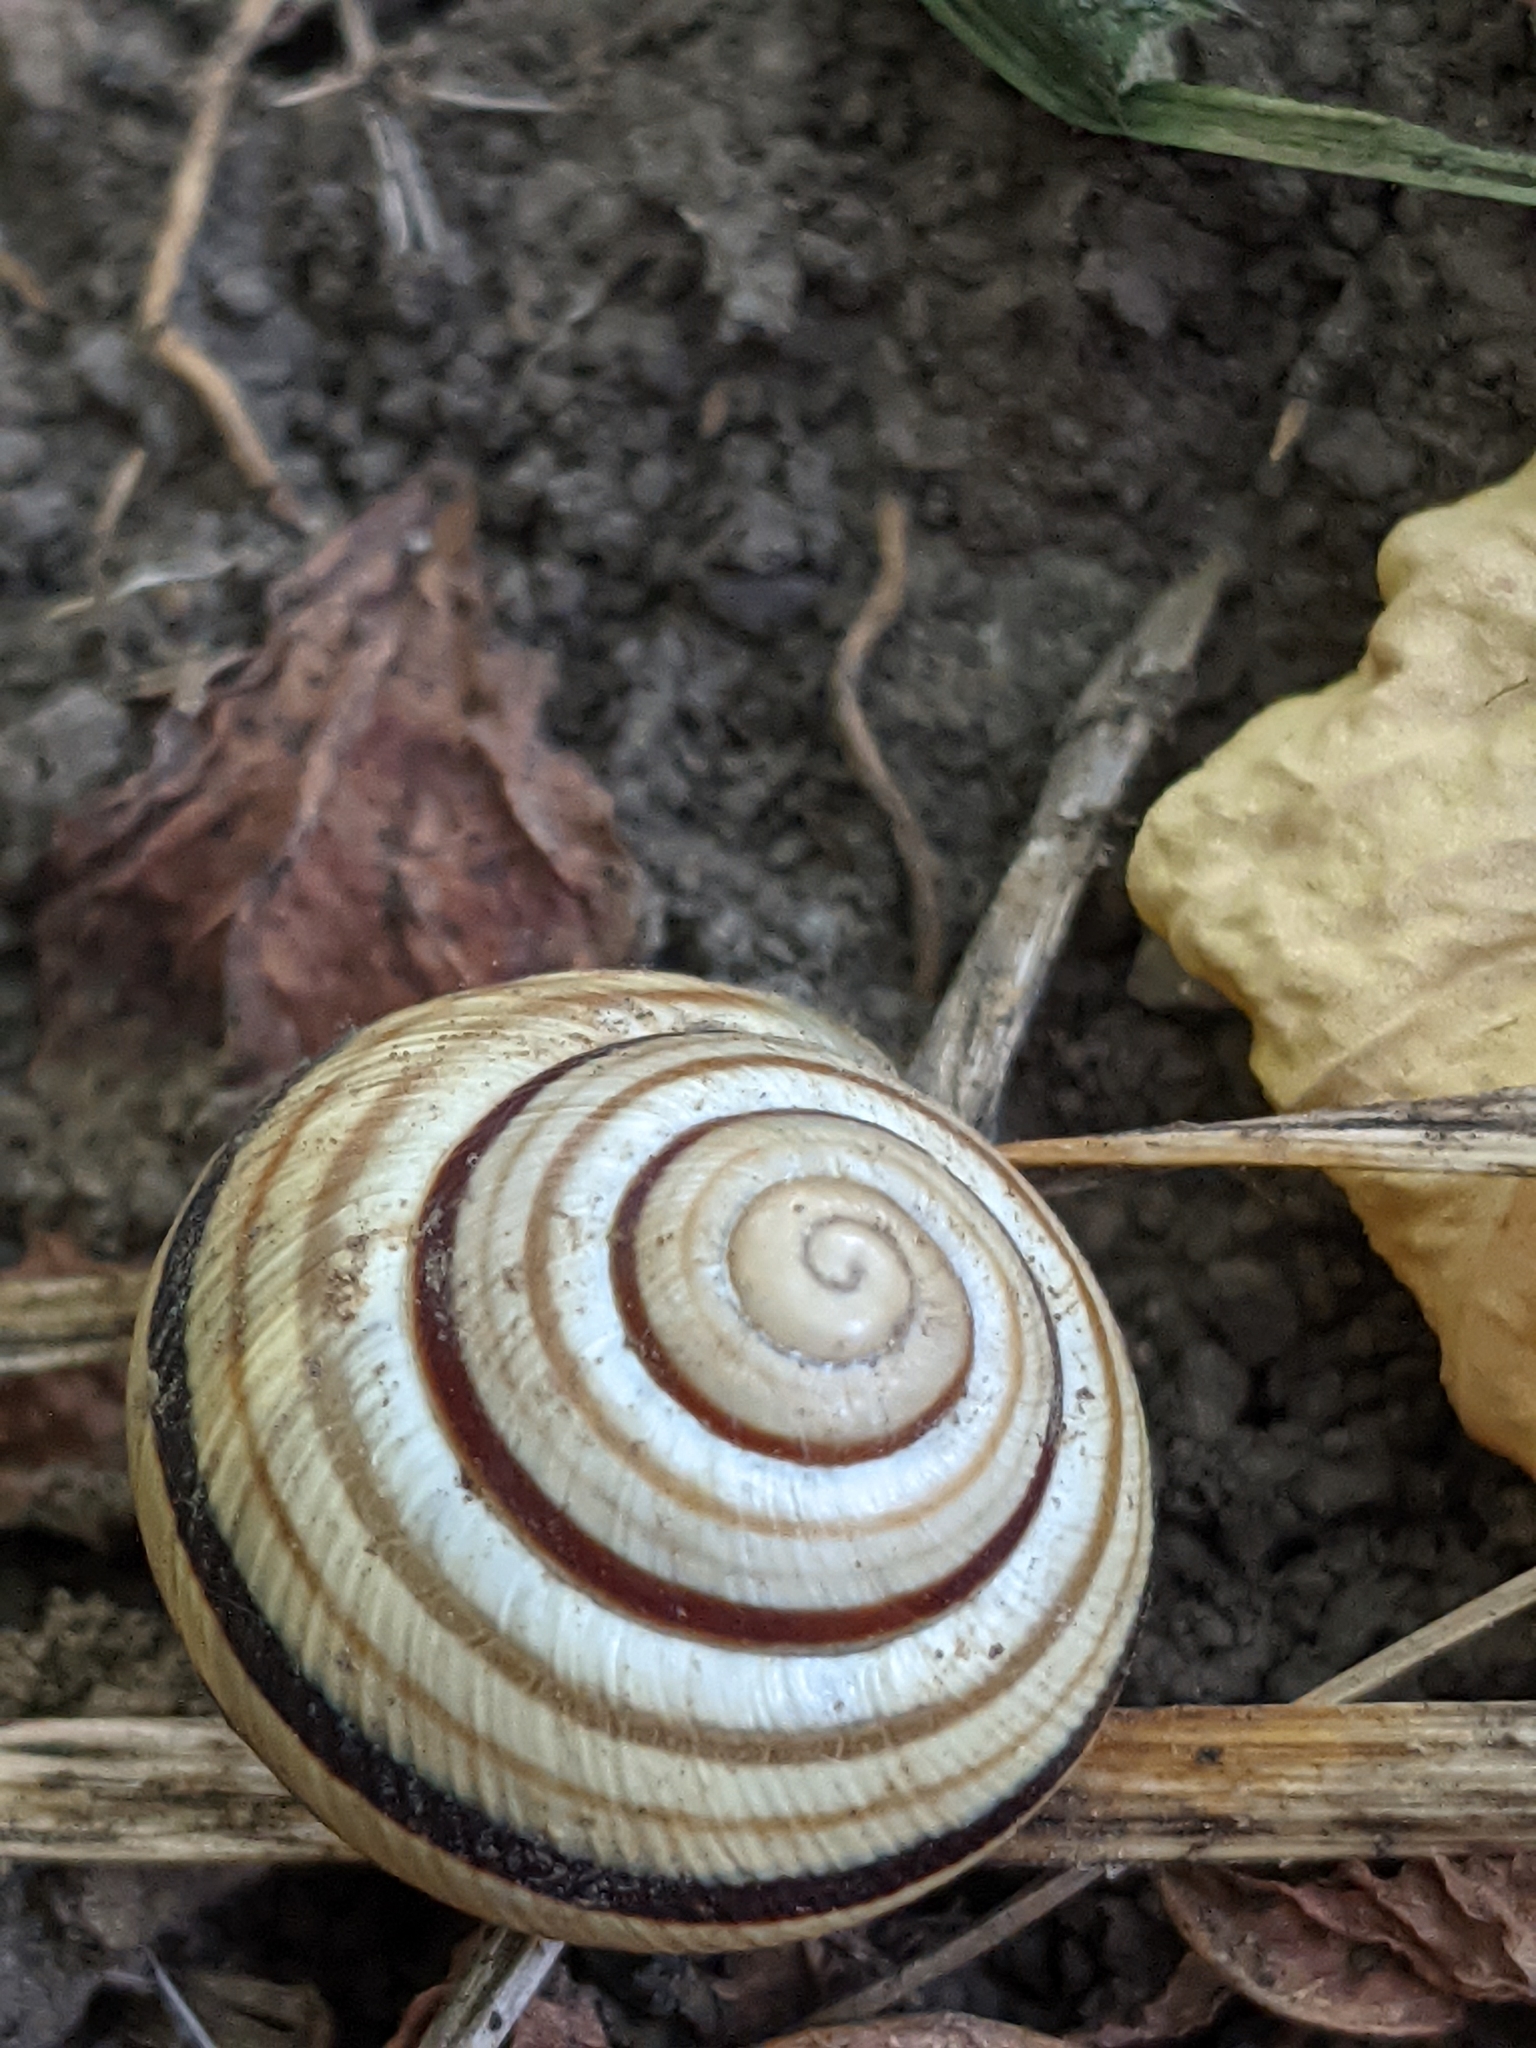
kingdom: Animalia
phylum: Mollusca
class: Gastropoda
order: Stylommatophora
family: Helicidae
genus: Caucasotachea
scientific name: Caucasotachea vindobonensis
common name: European helicid land snail
